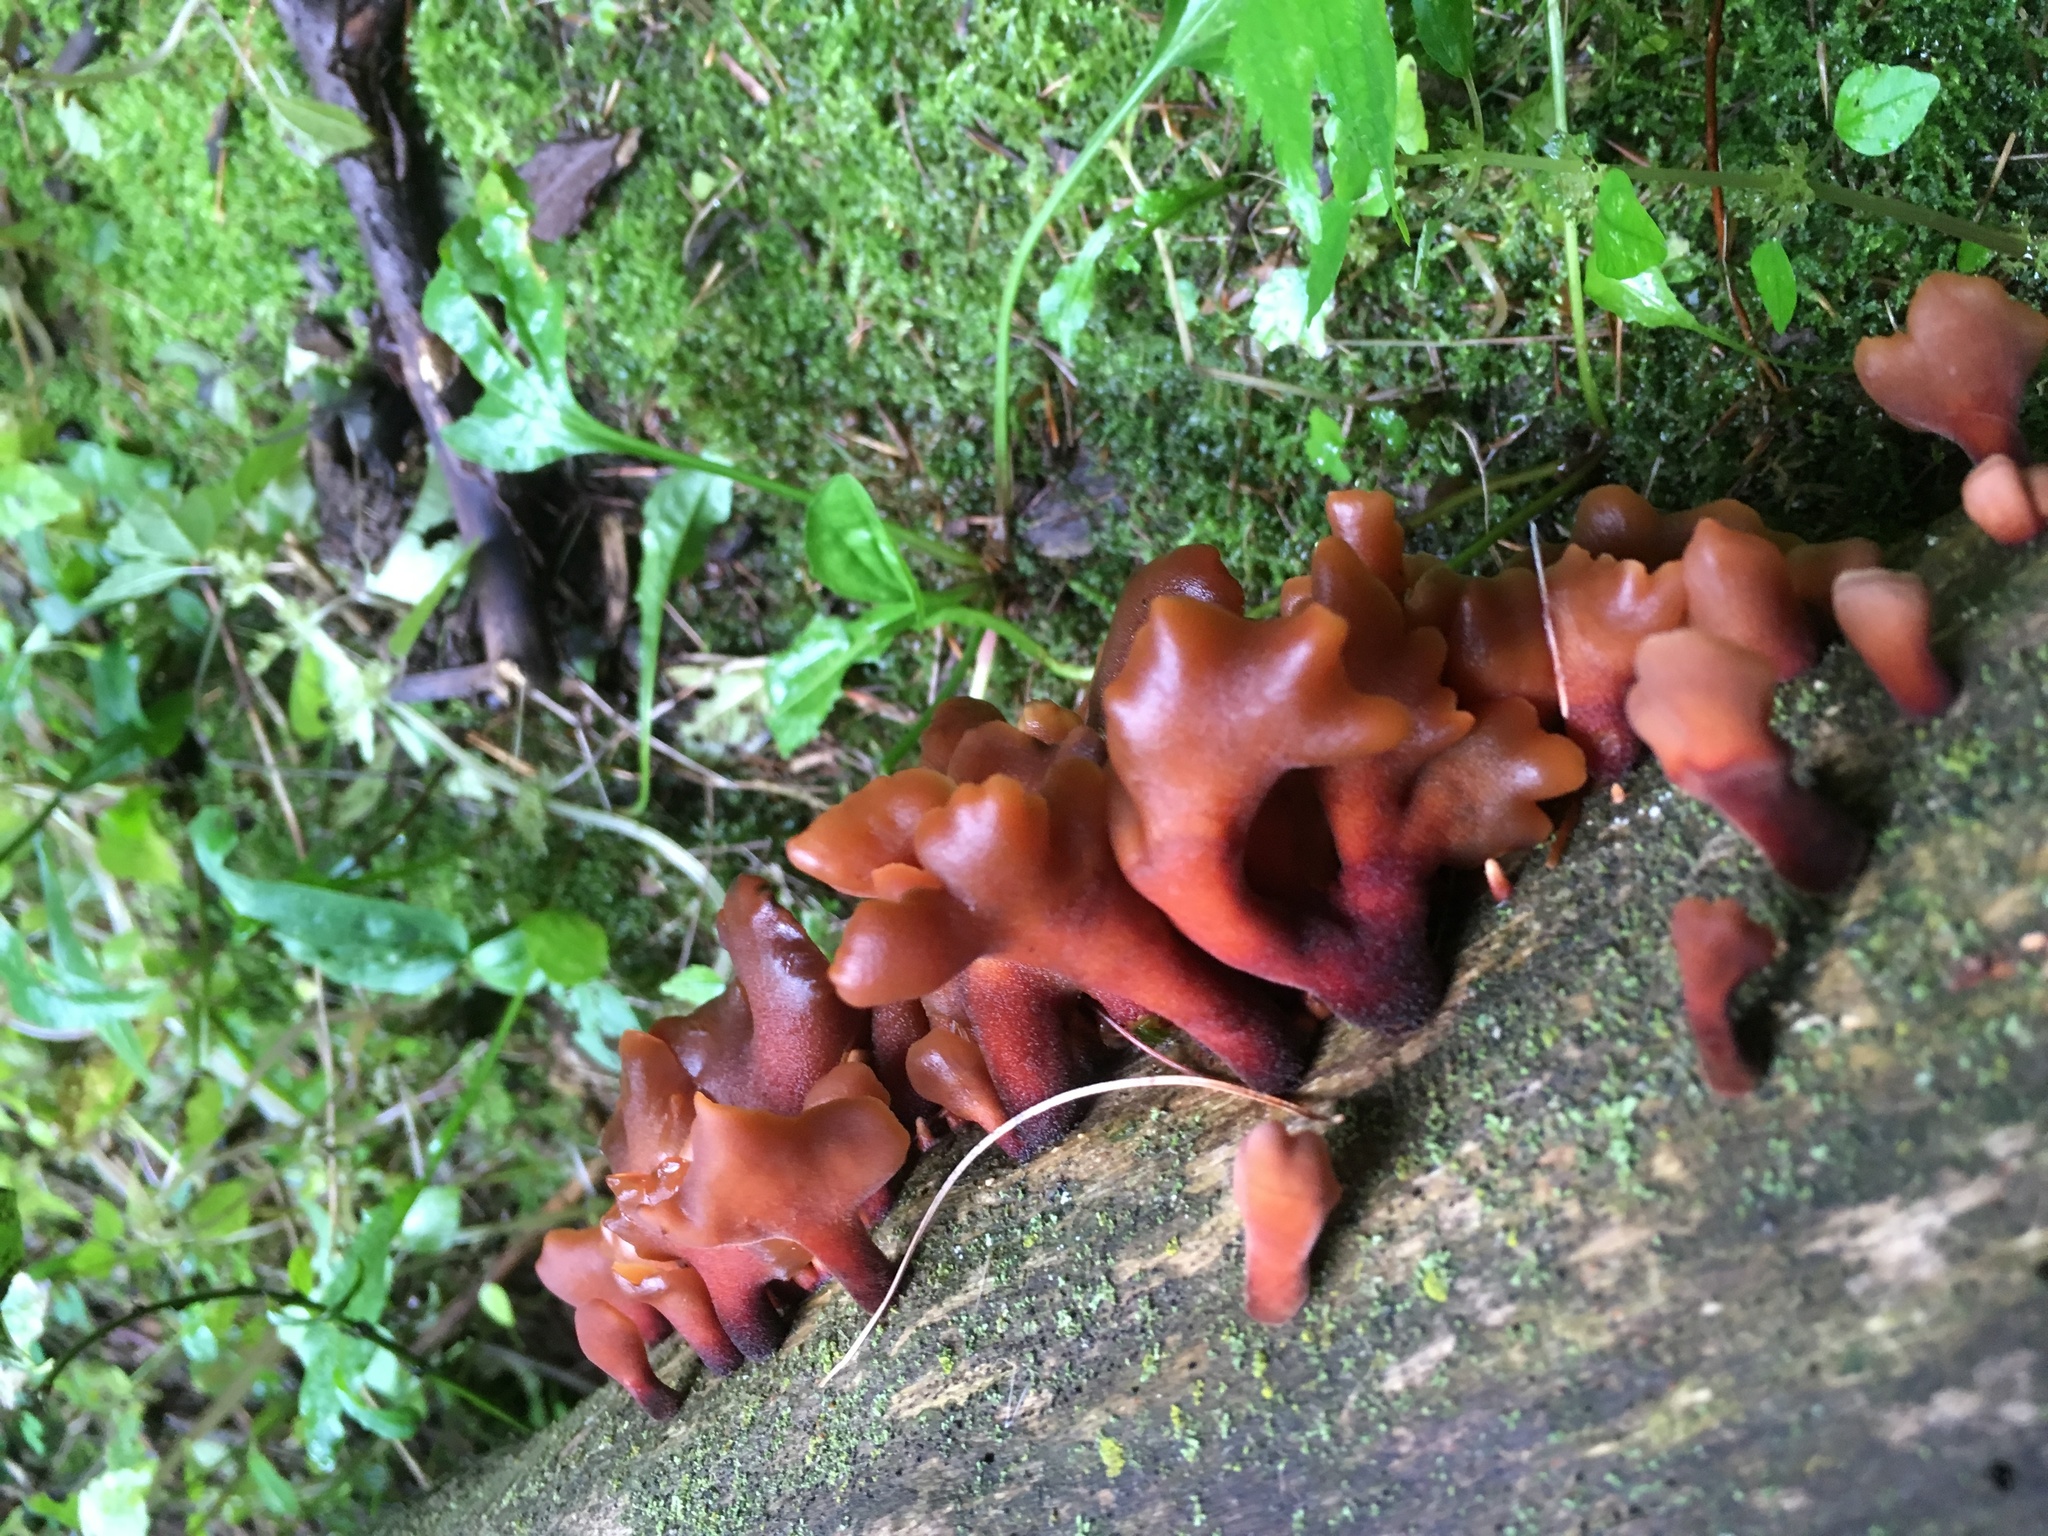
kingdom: Fungi
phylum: Basidiomycota
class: Dacrymycetes
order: Dacrymycetales
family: Dacrymycetaceae
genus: Dacryopinax
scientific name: Dacryopinax elegans
